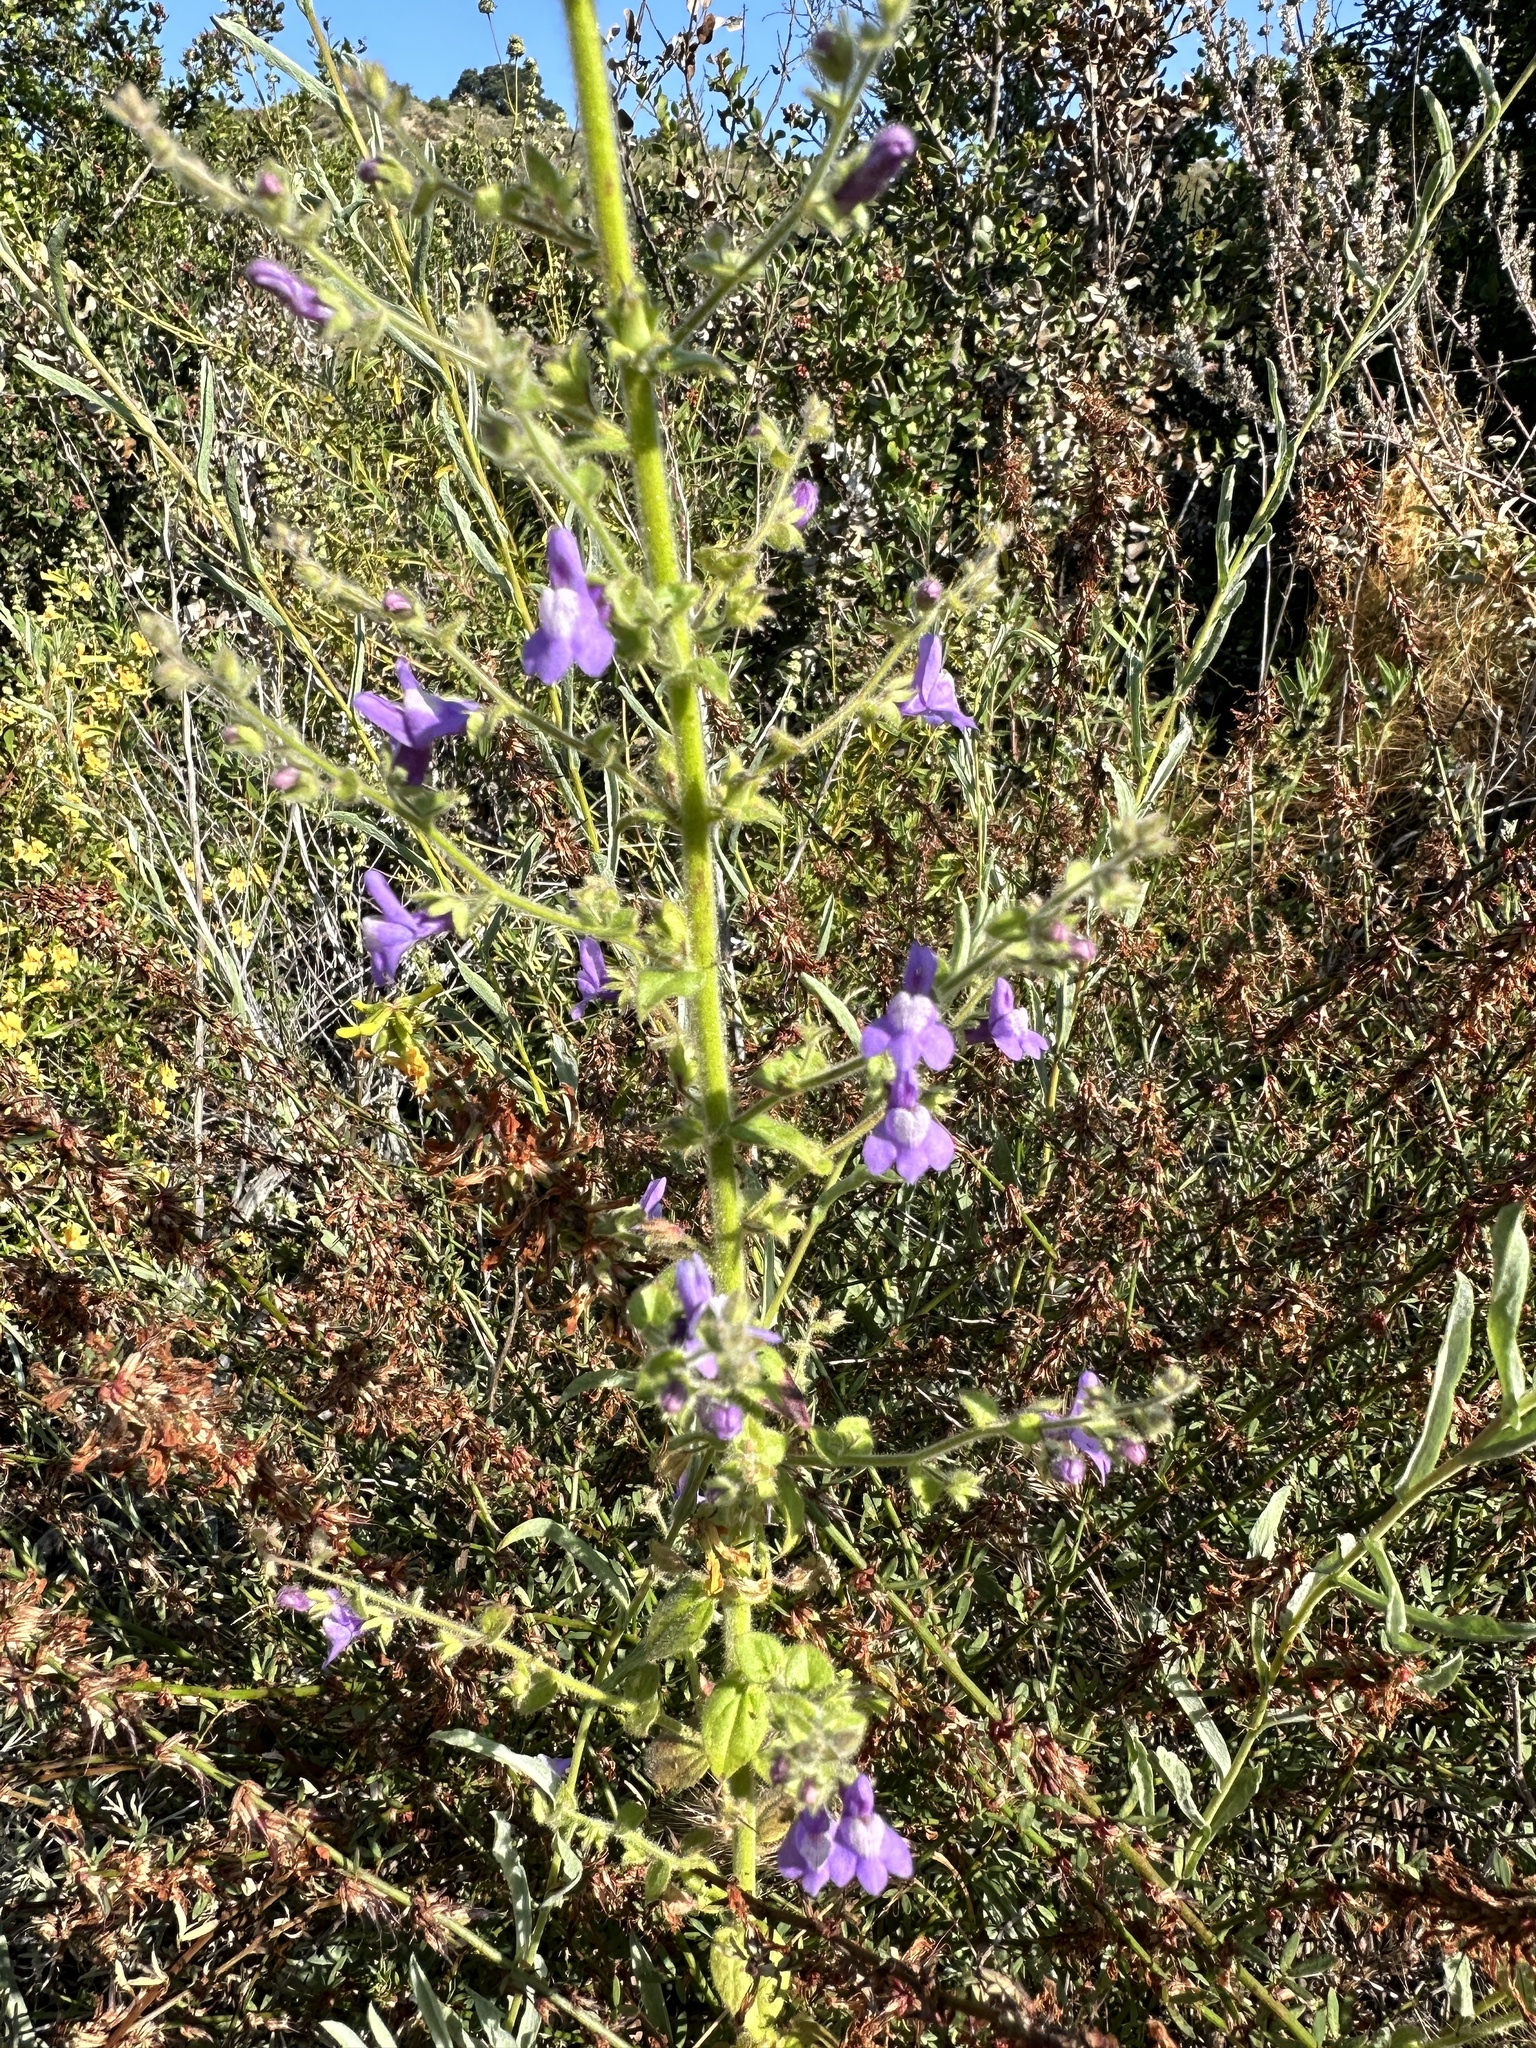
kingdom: Plantae
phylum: Tracheophyta
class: Magnoliopsida
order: Lamiales
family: Plantaginaceae
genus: Sairocarpus
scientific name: Sairocarpus nuttallianus
